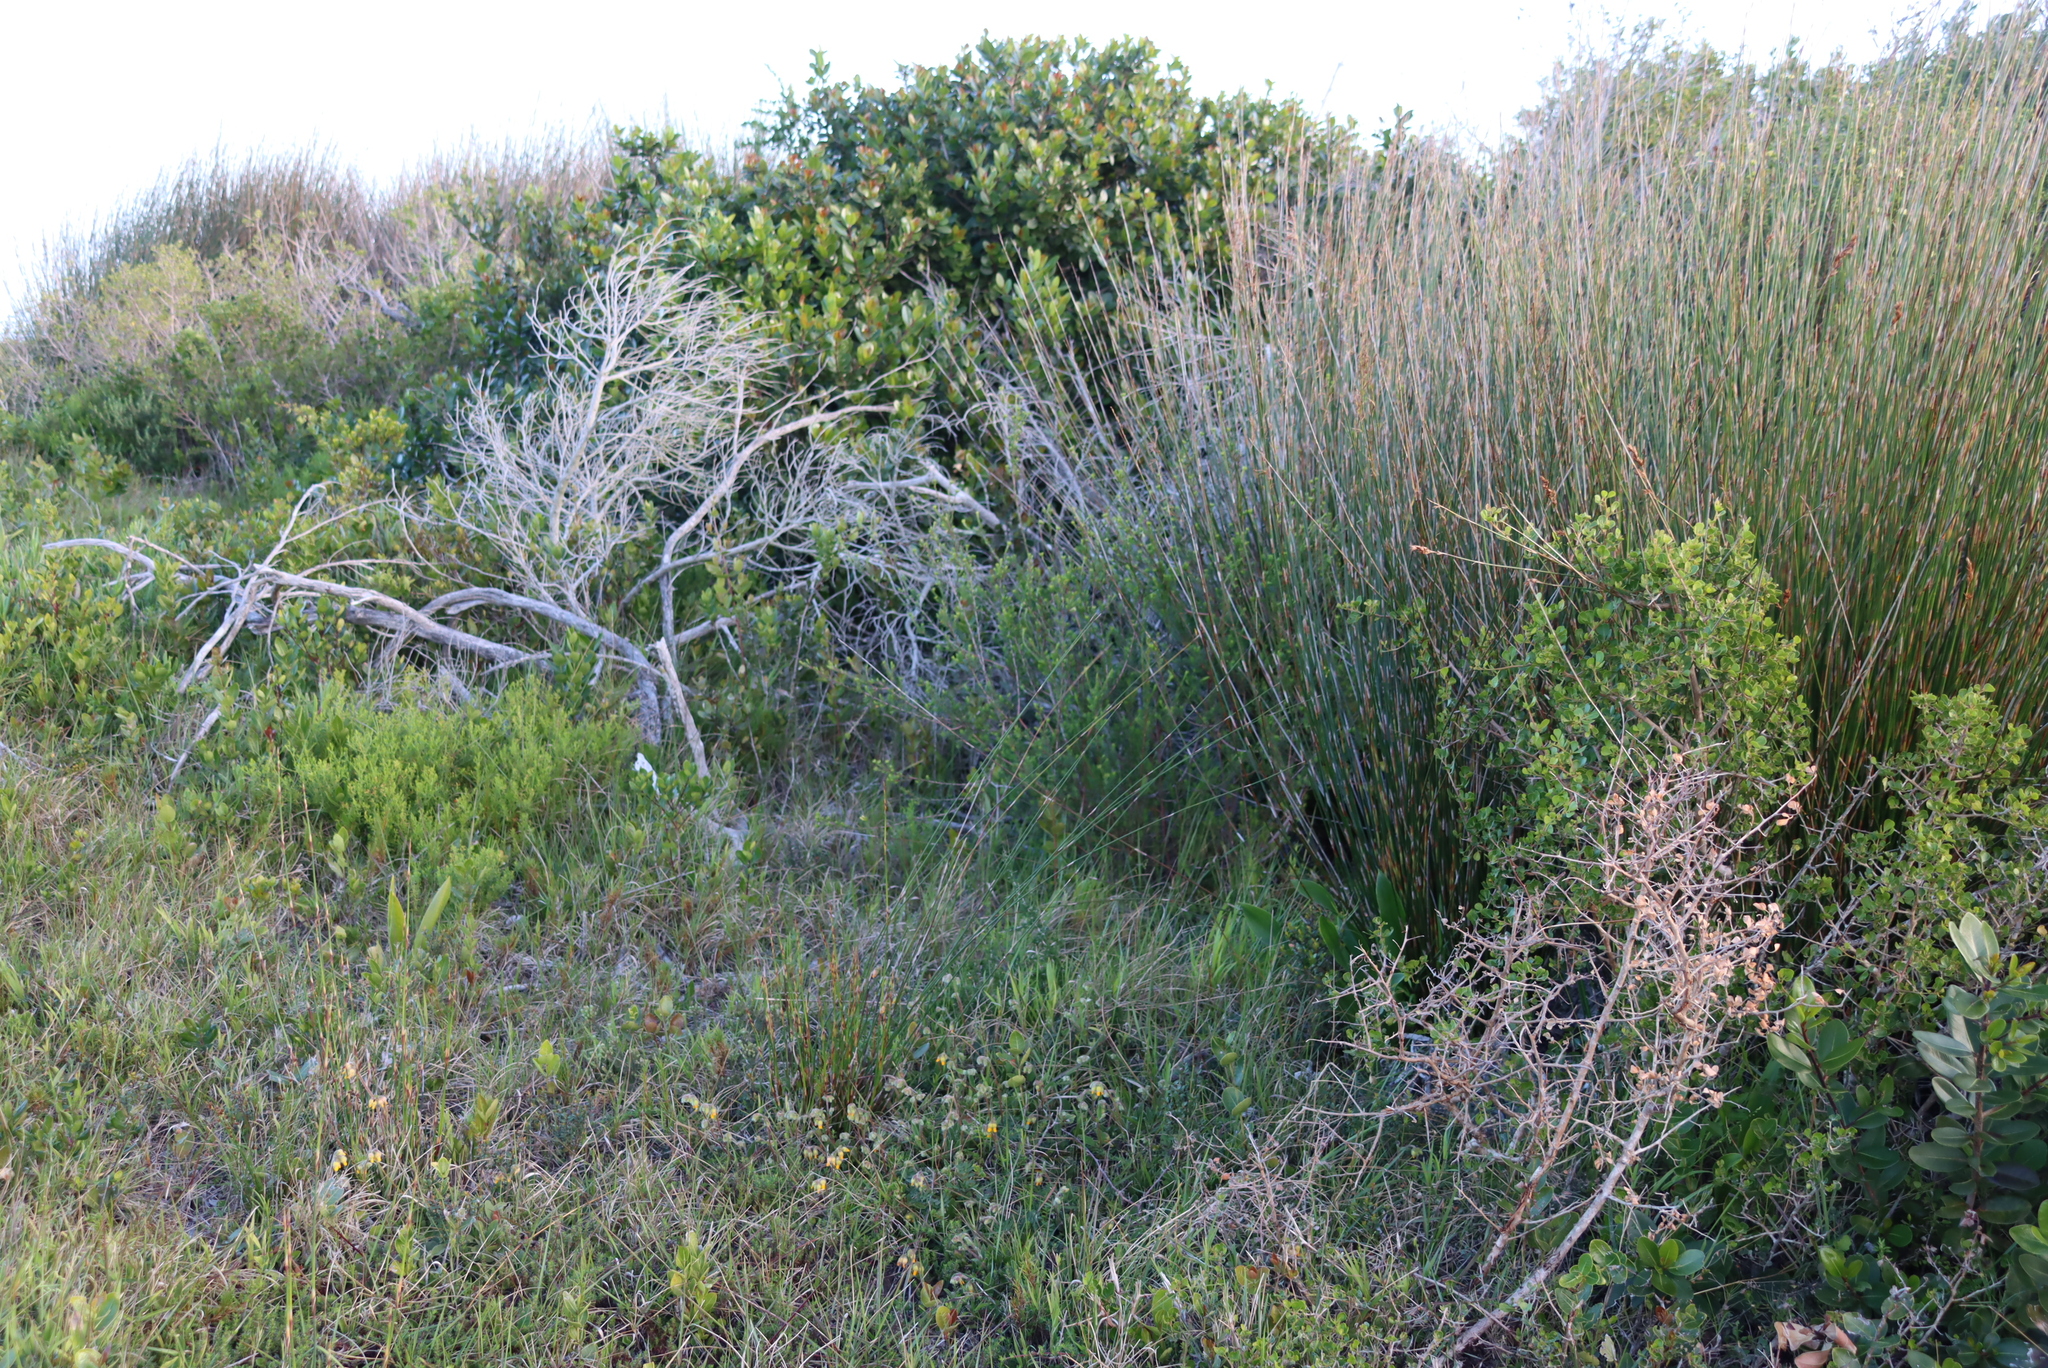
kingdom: Plantae
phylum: Tracheophyta
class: Liliopsida
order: Poales
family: Restionaceae
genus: Thamnochortus
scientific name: Thamnochortus insignis
